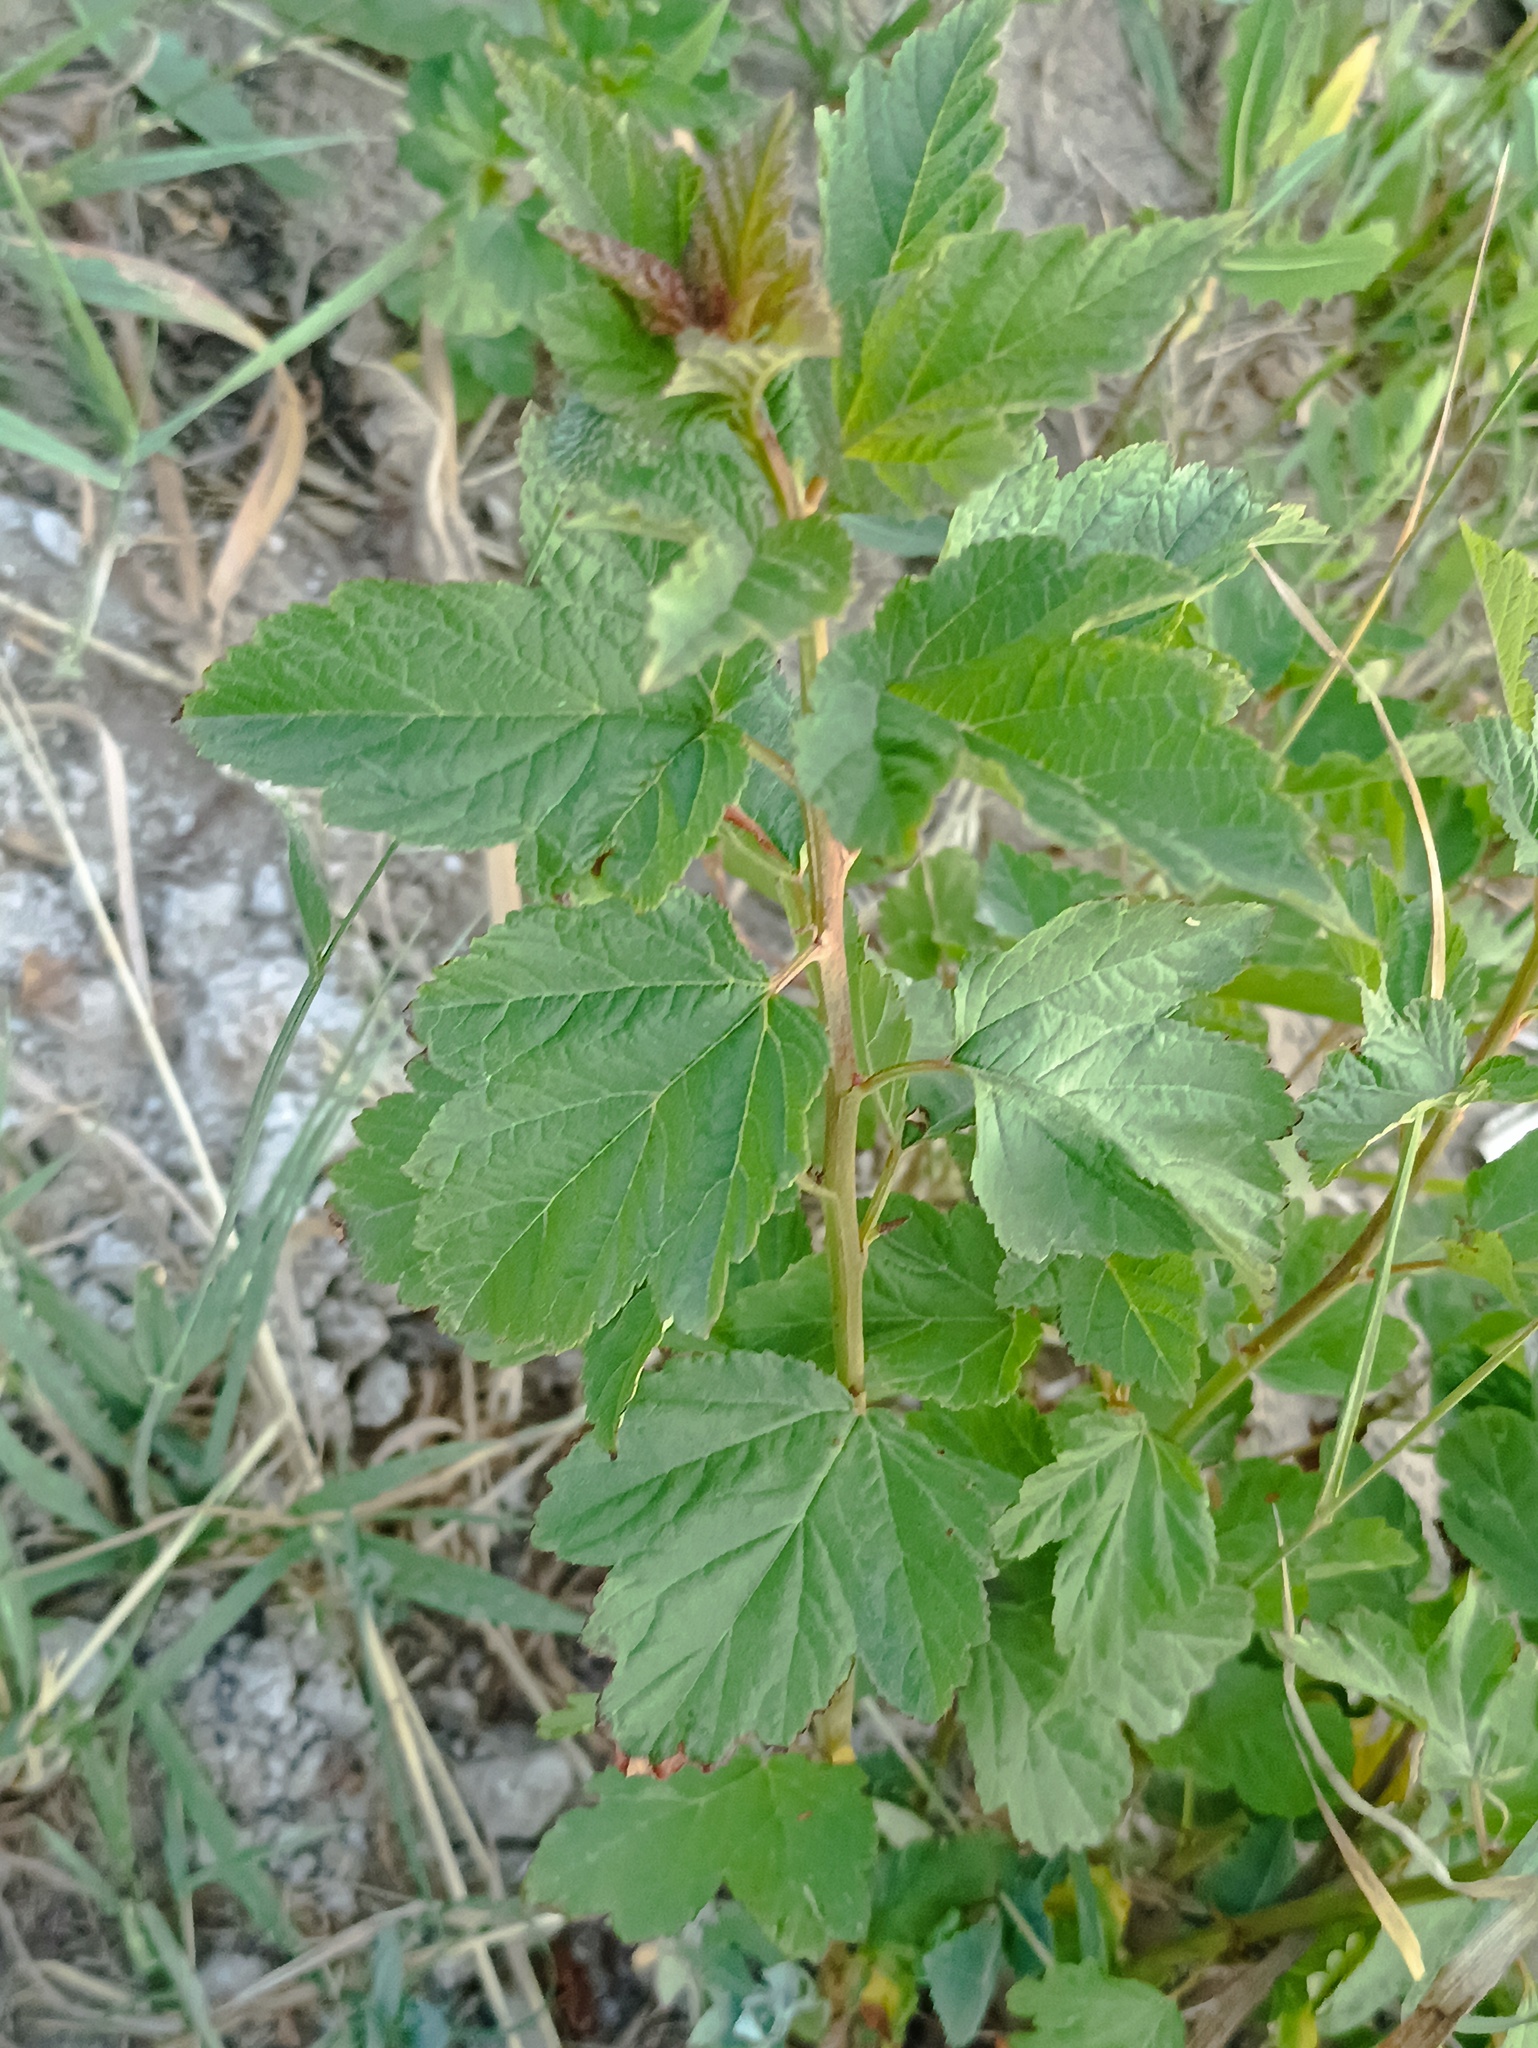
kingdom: Plantae
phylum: Tracheophyta
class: Magnoliopsida
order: Rosales
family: Rosaceae
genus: Physocarpus
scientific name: Physocarpus opulifolius
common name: Ninebark
